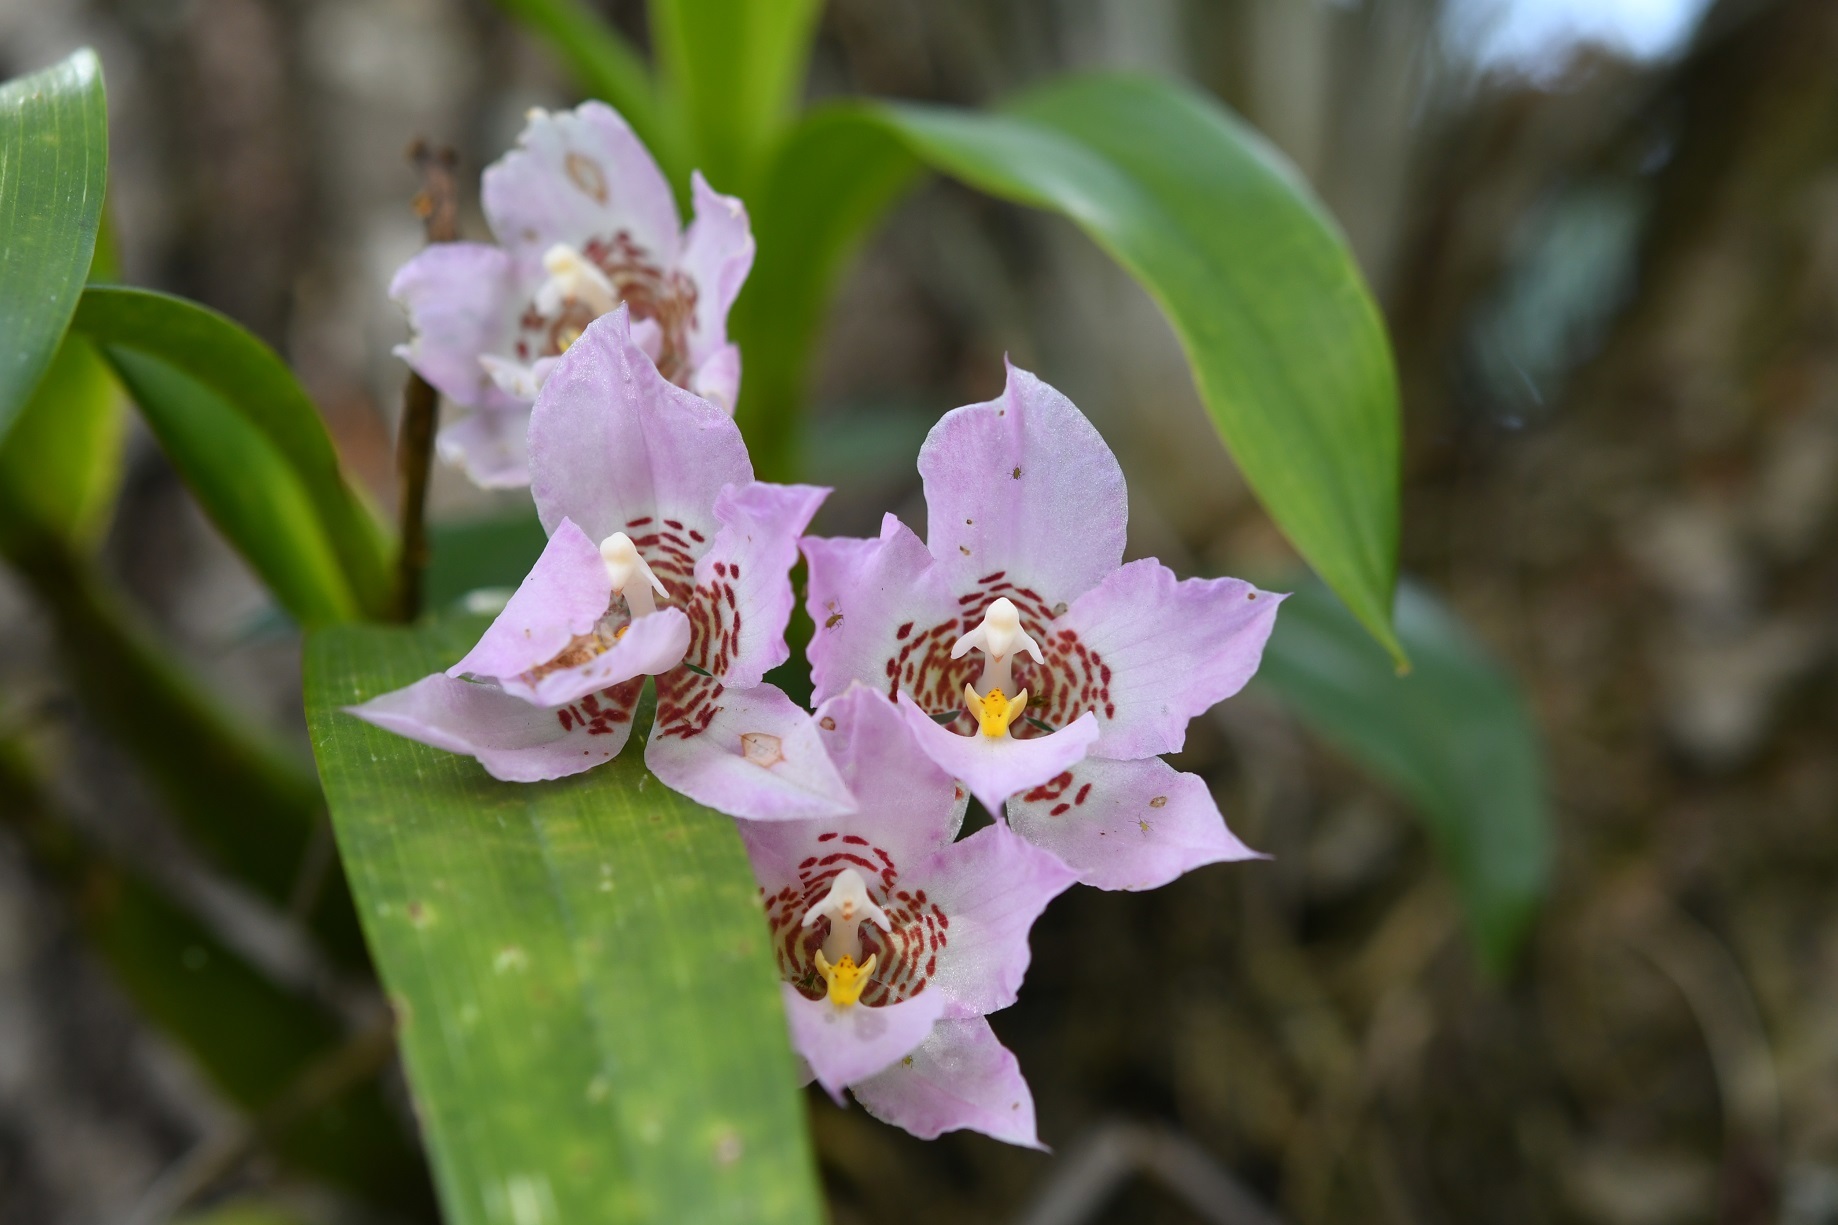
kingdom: Plantae
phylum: Tracheophyta
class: Liliopsida
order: Asparagales
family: Orchidaceae
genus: Rhynchostele
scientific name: Rhynchostele cervantesii
